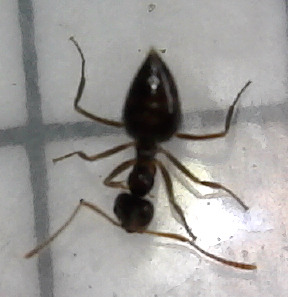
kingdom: Animalia
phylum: Arthropoda
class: Insecta
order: Hymenoptera
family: Formicidae
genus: Prenolepis
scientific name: Prenolepis imparis
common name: Small honey ant
